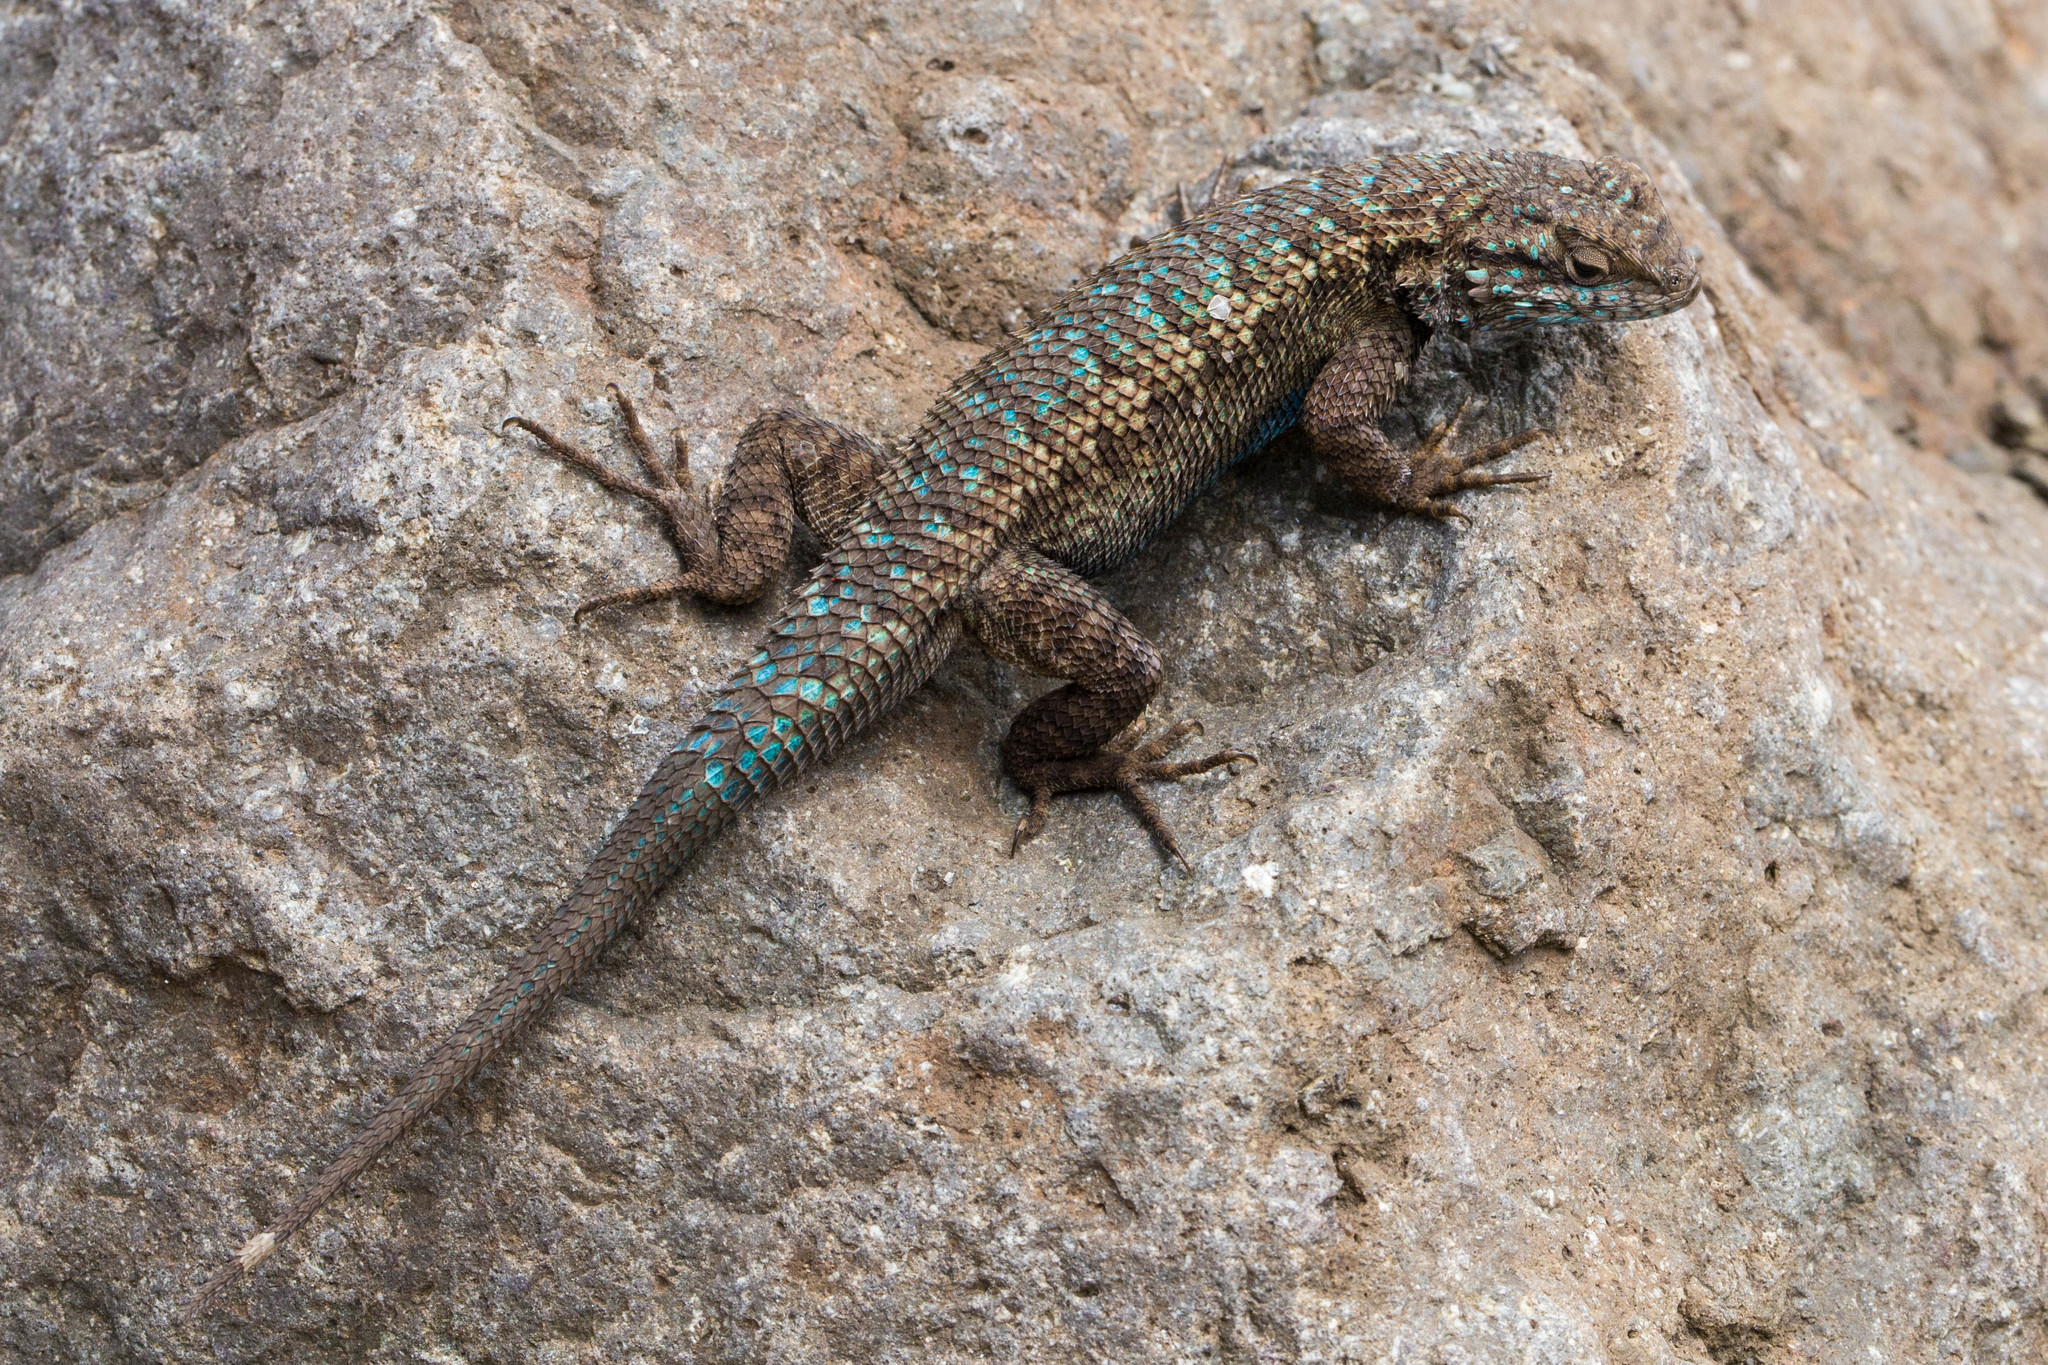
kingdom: Animalia
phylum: Chordata
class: Squamata
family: Phrynosomatidae
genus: Sceloporus
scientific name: Sceloporus occidentalis
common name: Western fence lizard
